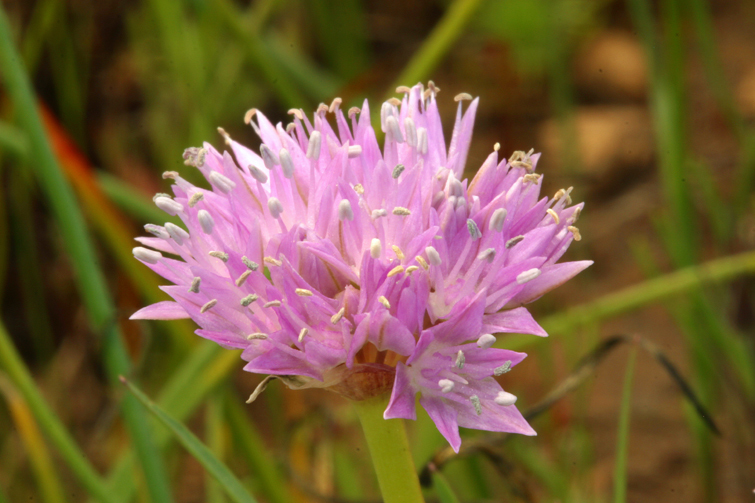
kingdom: Plantae
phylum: Tracheophyta
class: Liliopsida
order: Asparagales
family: Amaryllidaceae
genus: Allium
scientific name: Allium lemmonii
